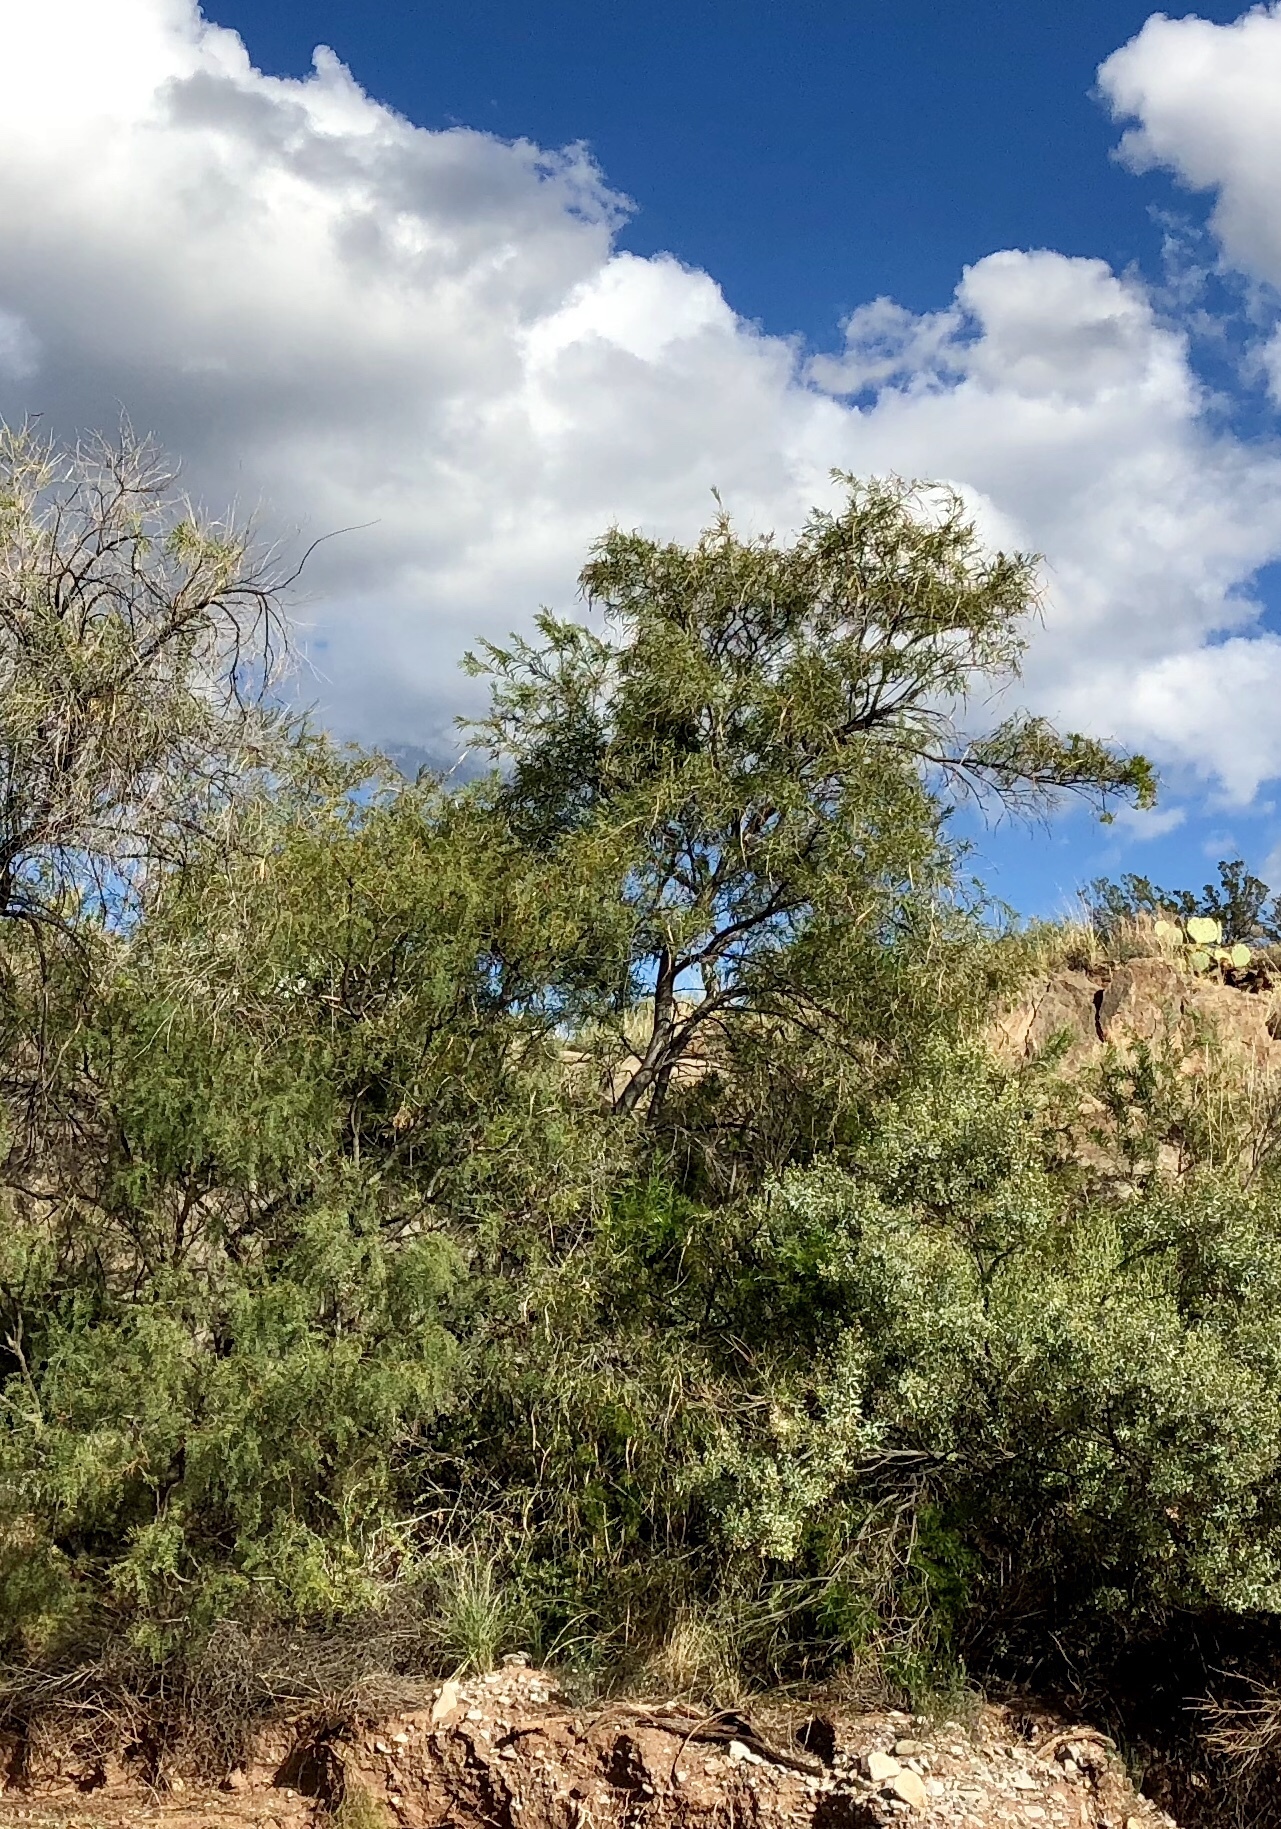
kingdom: Plantae
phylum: Tracheophyta
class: Magnoliopsida
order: Lamiales
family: Bignoniaceae
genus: Chilopsis
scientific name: Chilopsis linearis
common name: Desert-willow
